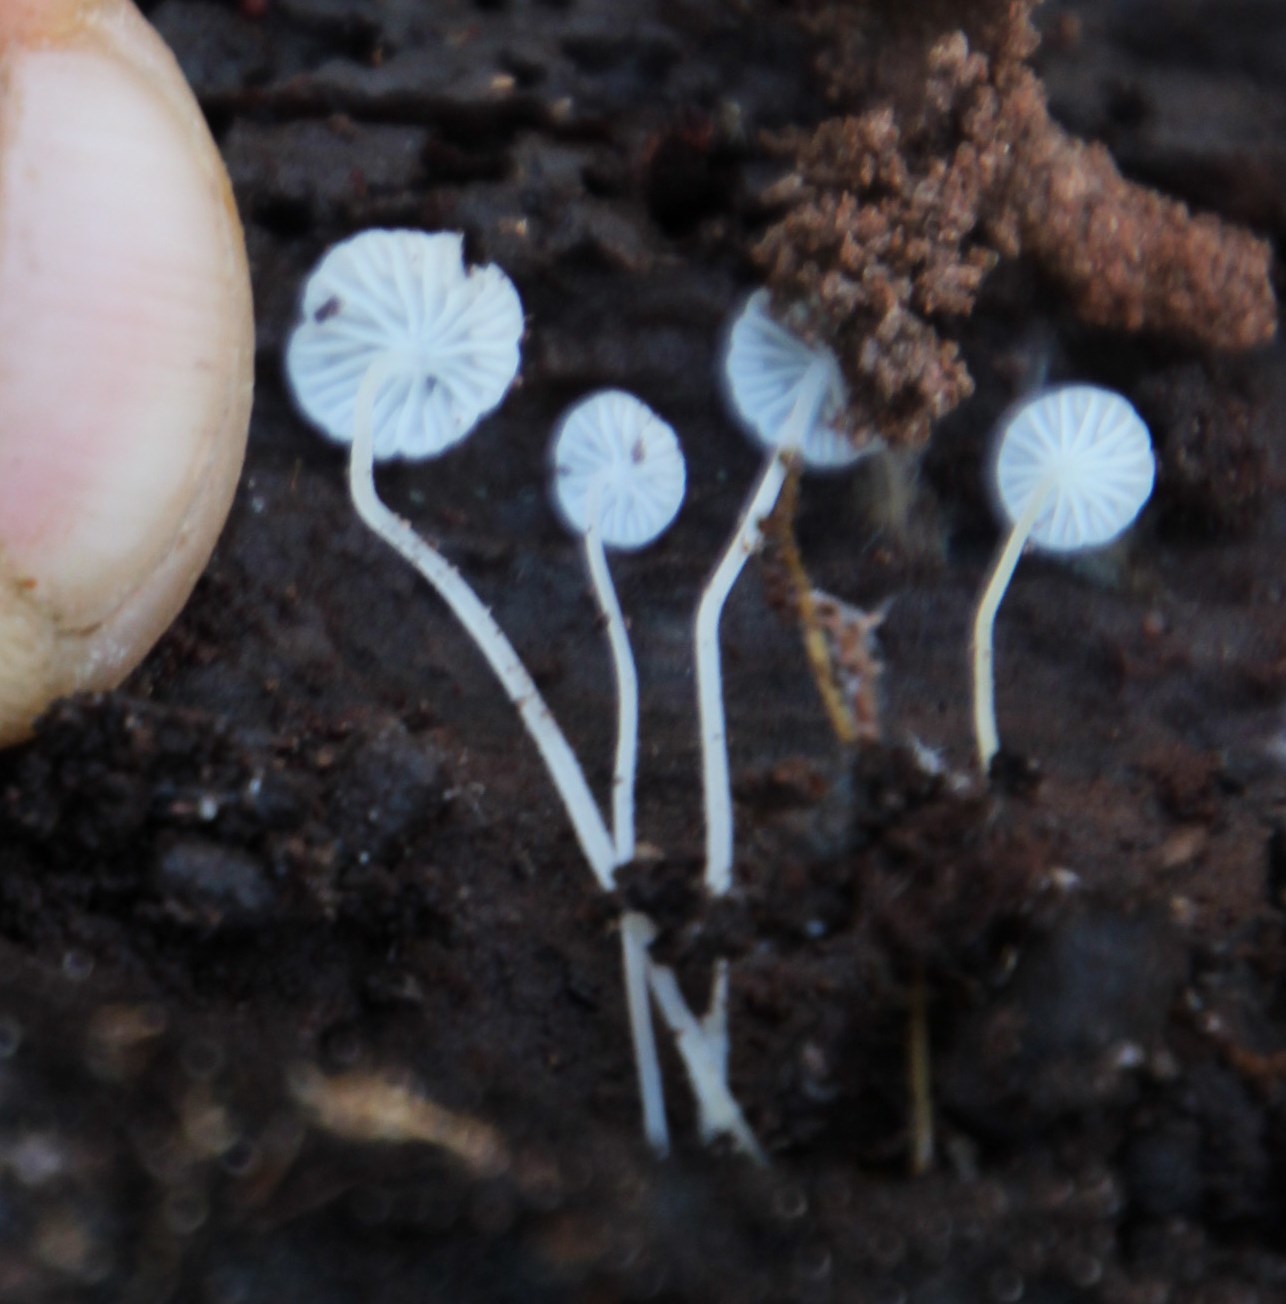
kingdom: Fungi
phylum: Basidiomycota
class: Agaricomycetes
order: Agaricales
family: Porotheleaceae
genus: Phloeomana
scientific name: Phloeomana speirea
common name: Bark bonnet
